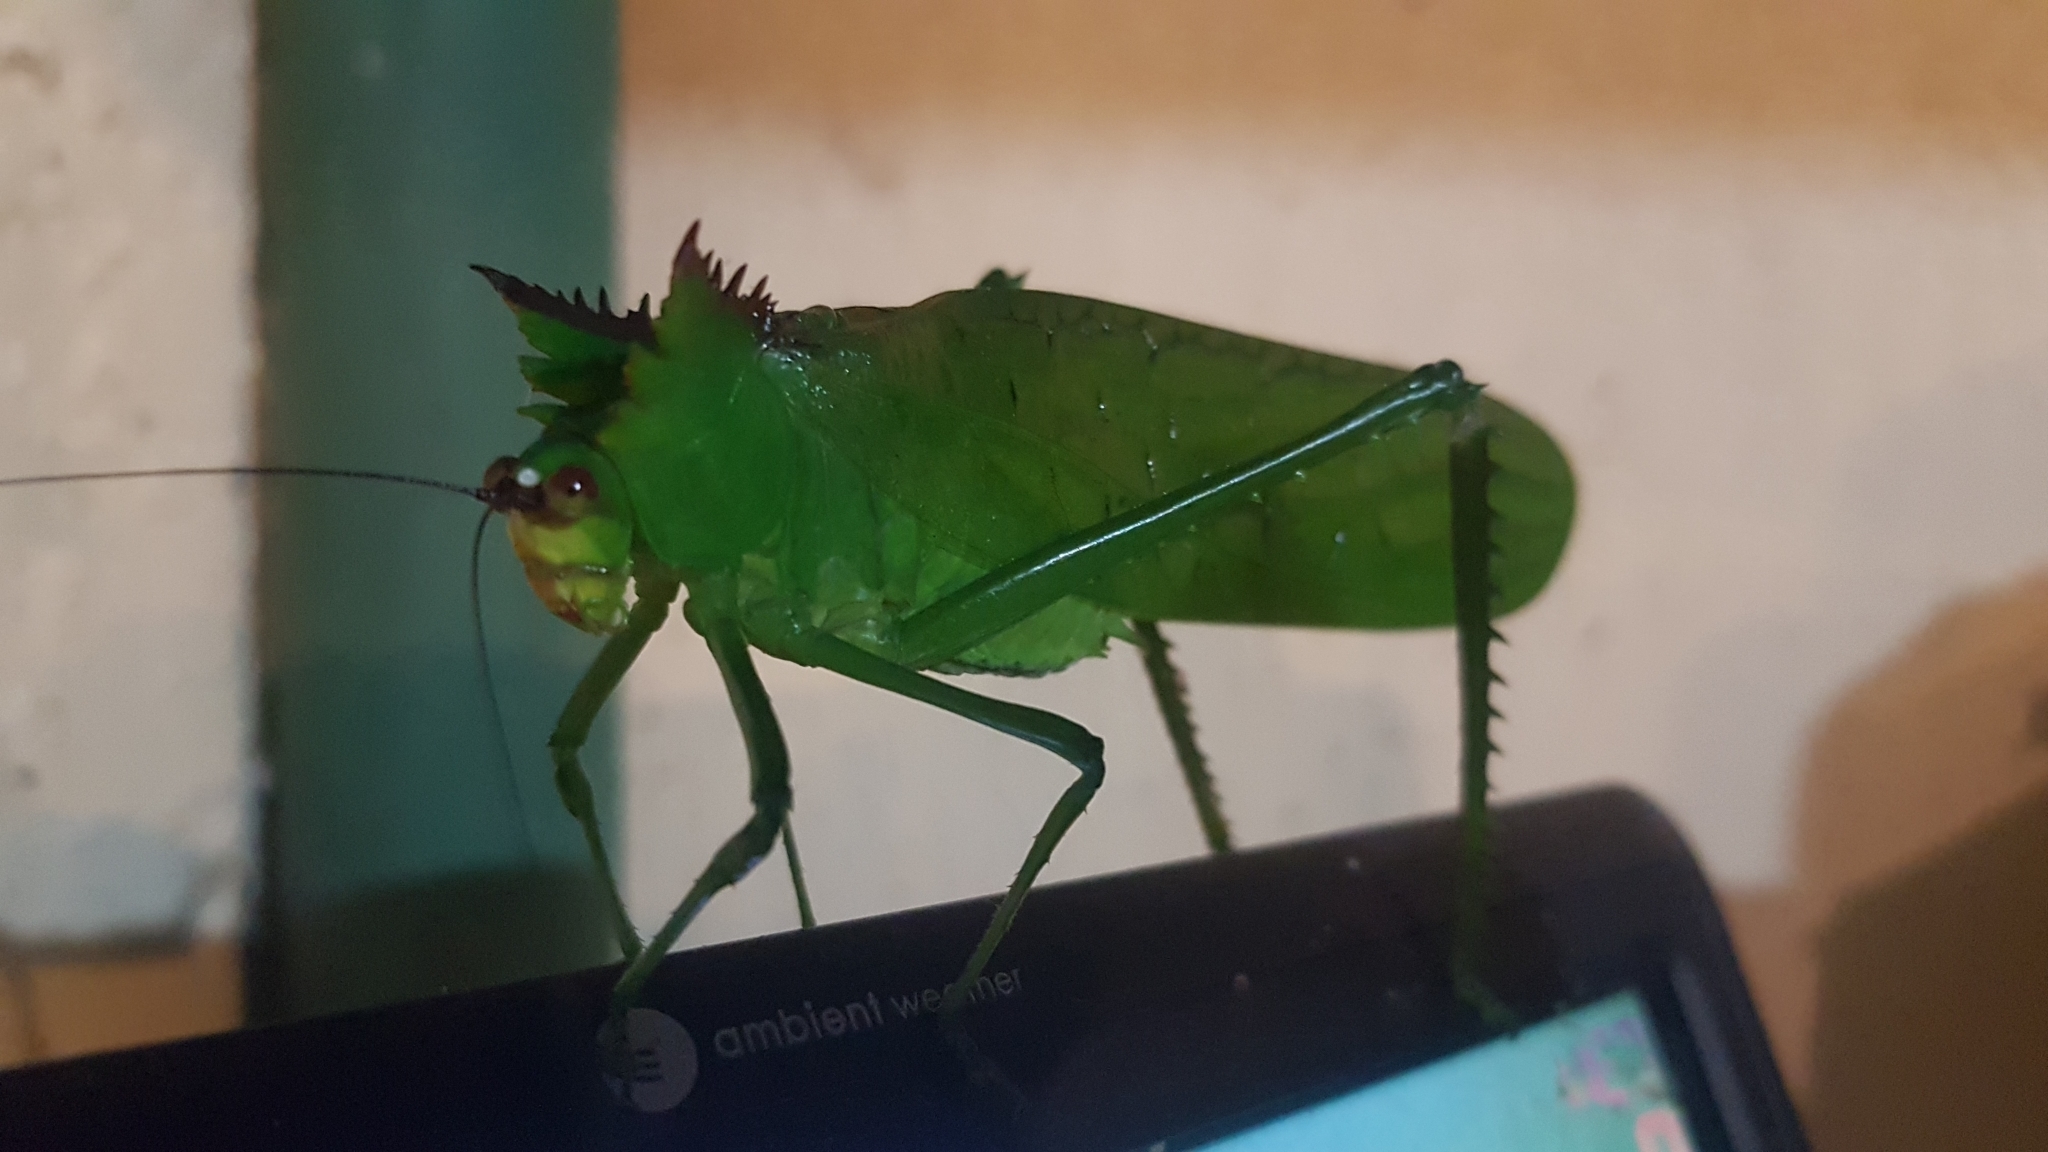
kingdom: Animalia
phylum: Arthropoda
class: Insecta
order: Orthoptera
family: Tettigoniidae
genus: Nicklephyllum
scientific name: Nicklephyllum acanthonotum
